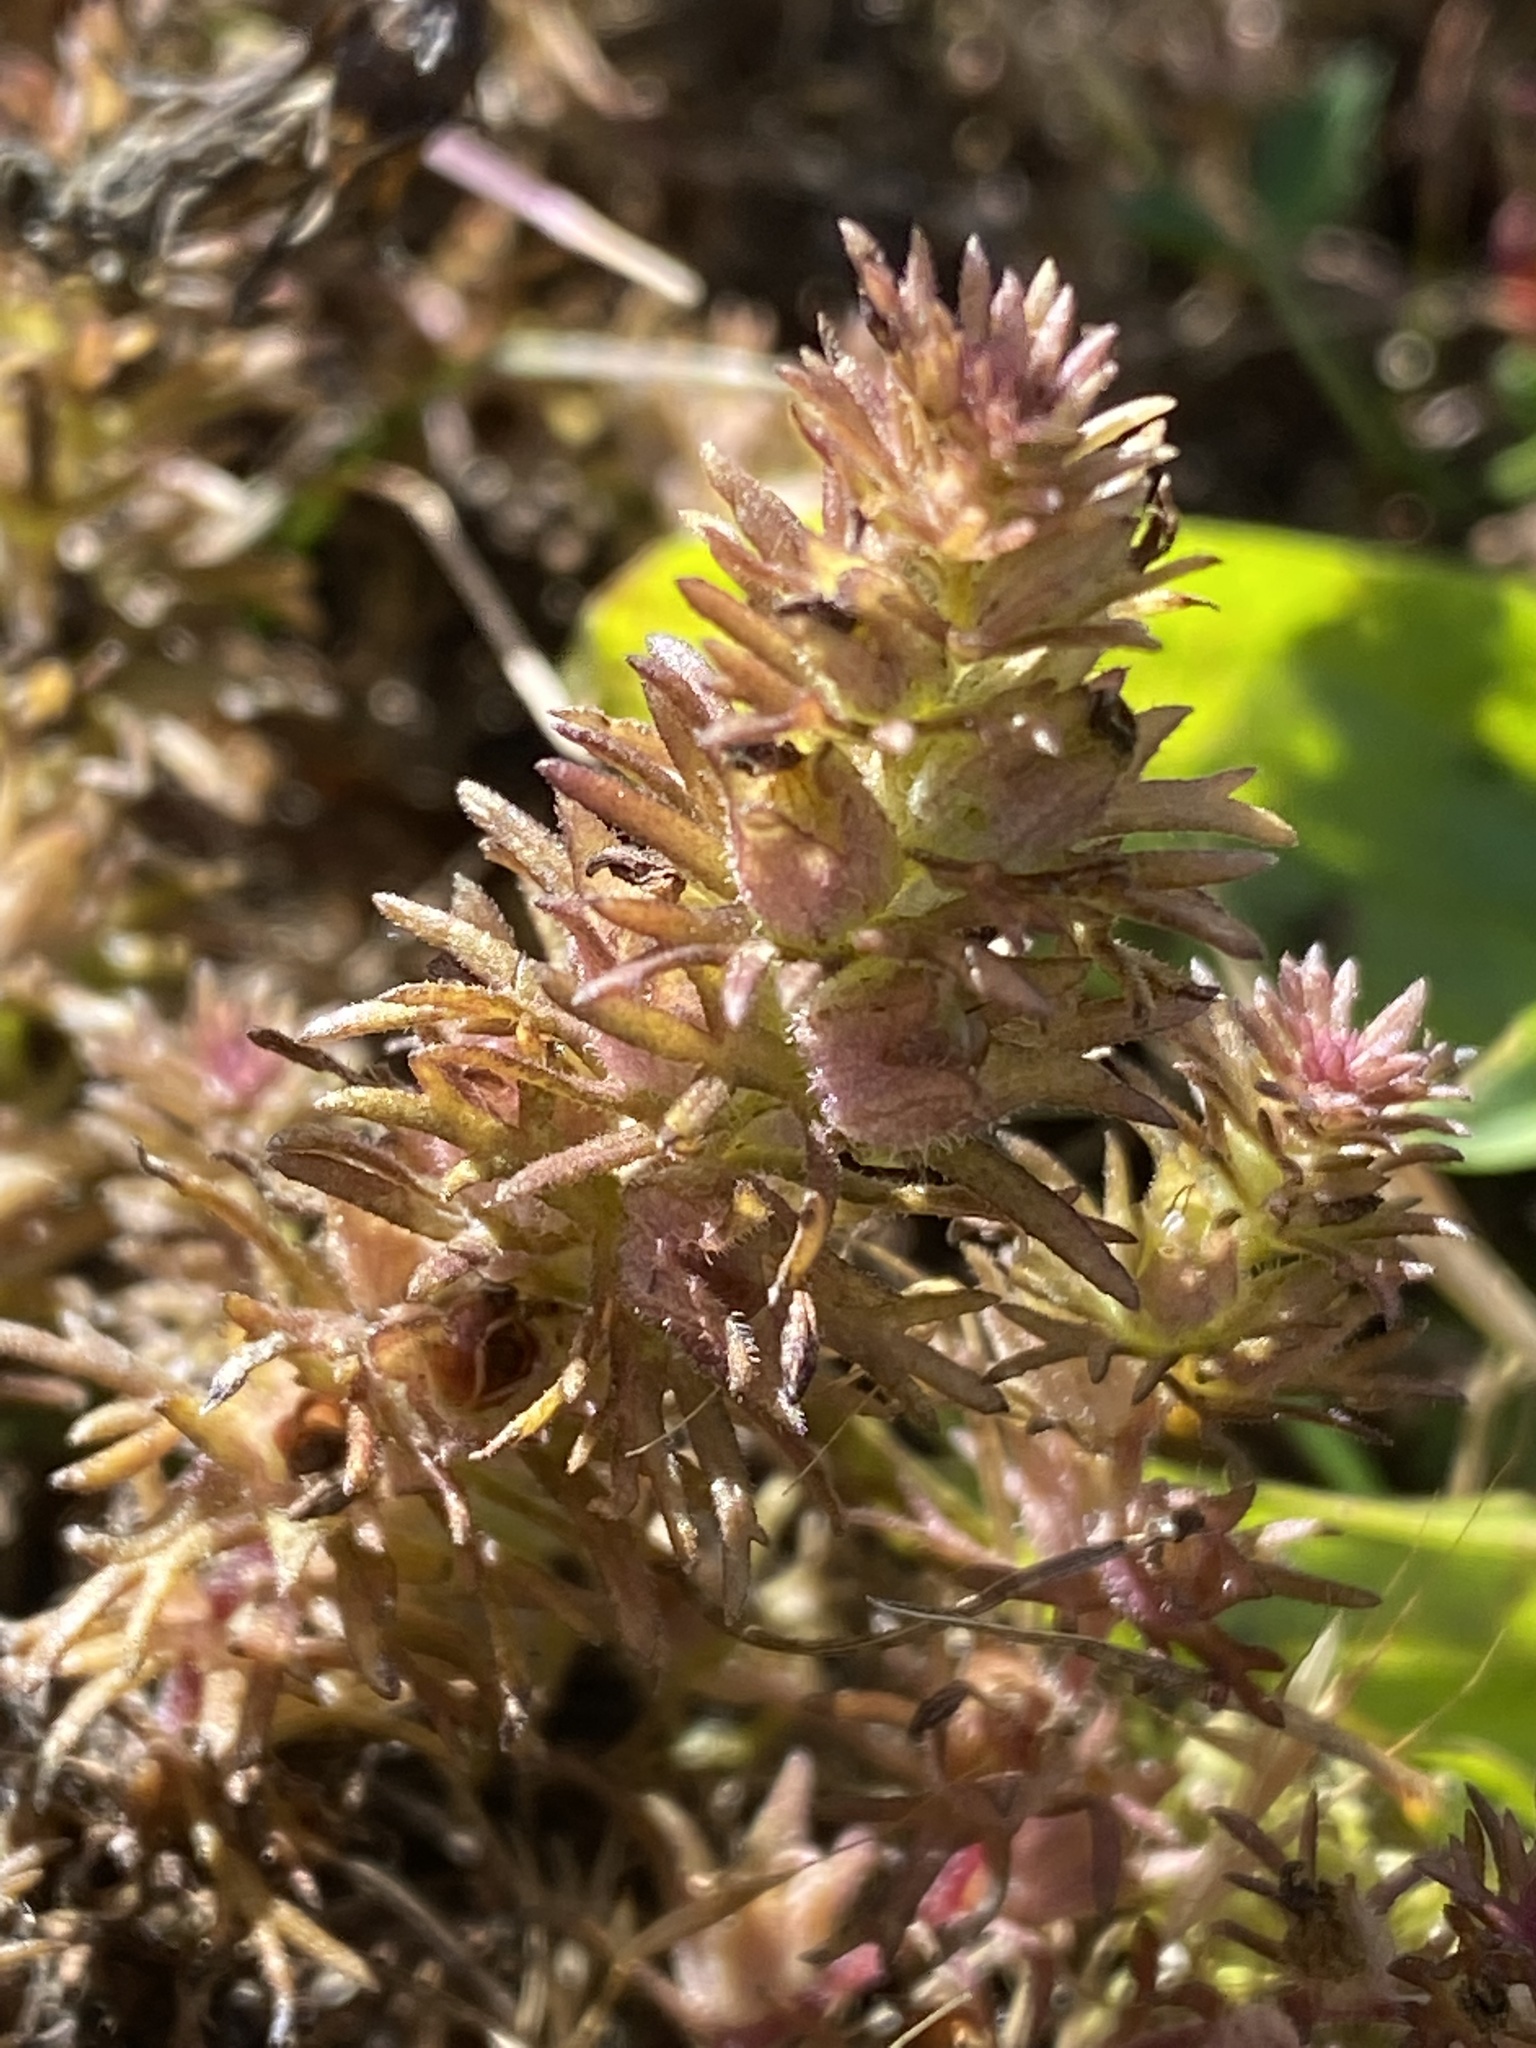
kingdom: Plantae
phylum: Tracheophyta
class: Magnoliopsida
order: Lamiales
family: Orobanchaceae
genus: Triphysaria
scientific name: Triphysaria pusilla
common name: Dwarf false owl-clover
